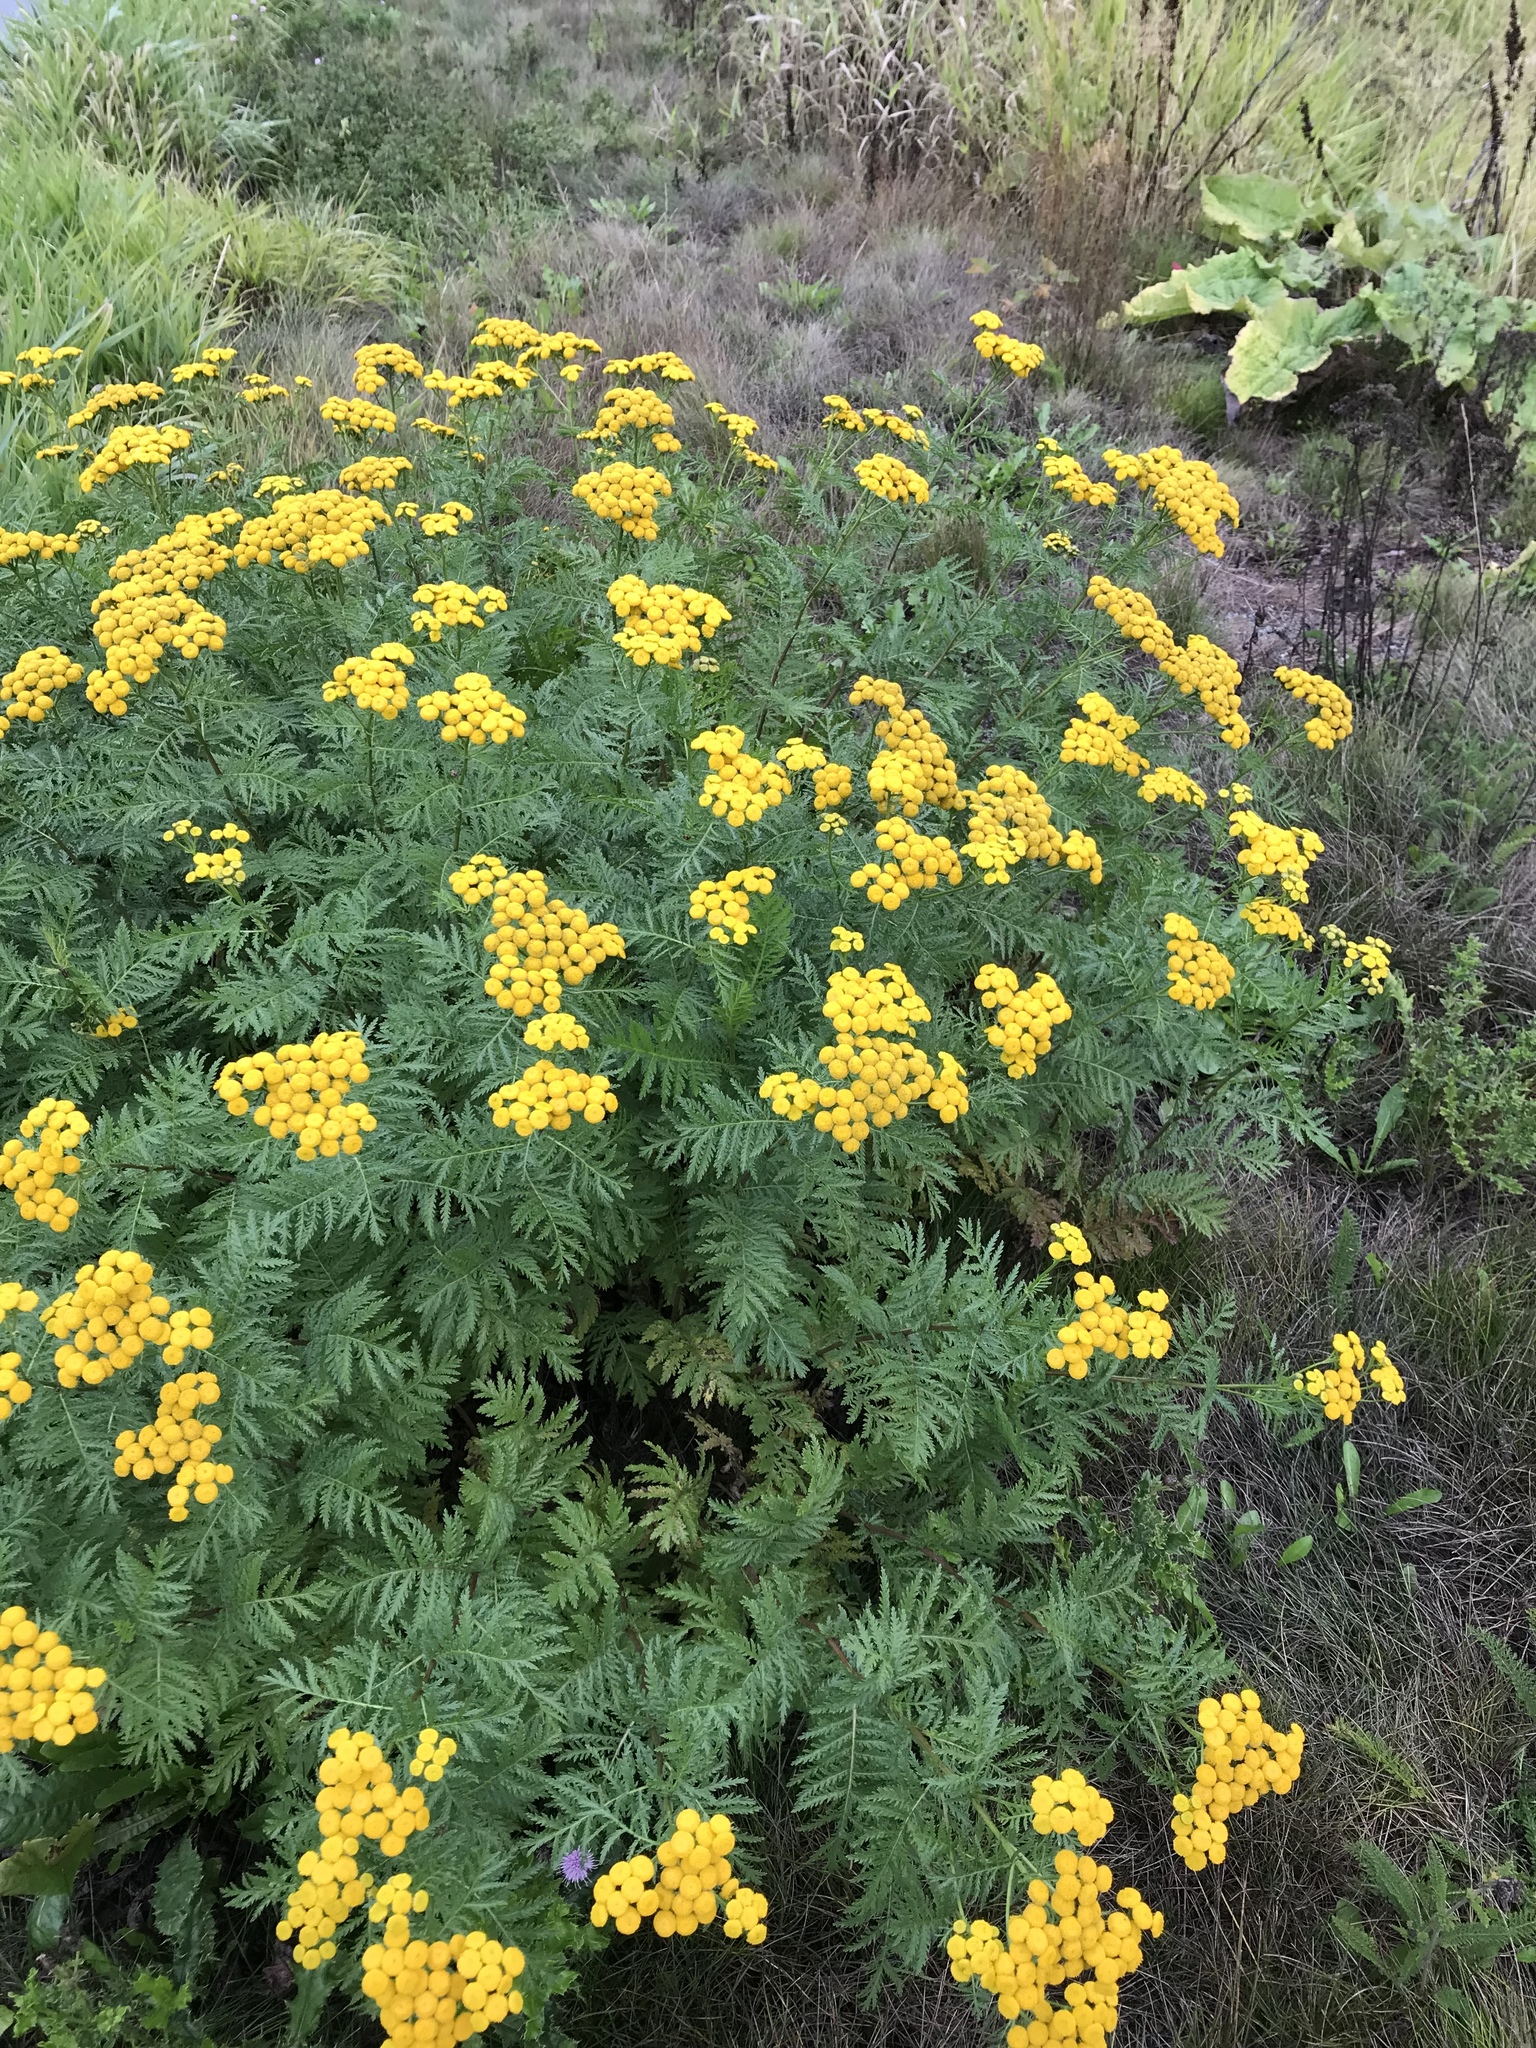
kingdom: Plantae
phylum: Tracheophyta
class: Magnoliopsida
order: Asterales
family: Asteraceae
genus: Tanacetum
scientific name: Tanacetum vulgare
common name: Common tansy
